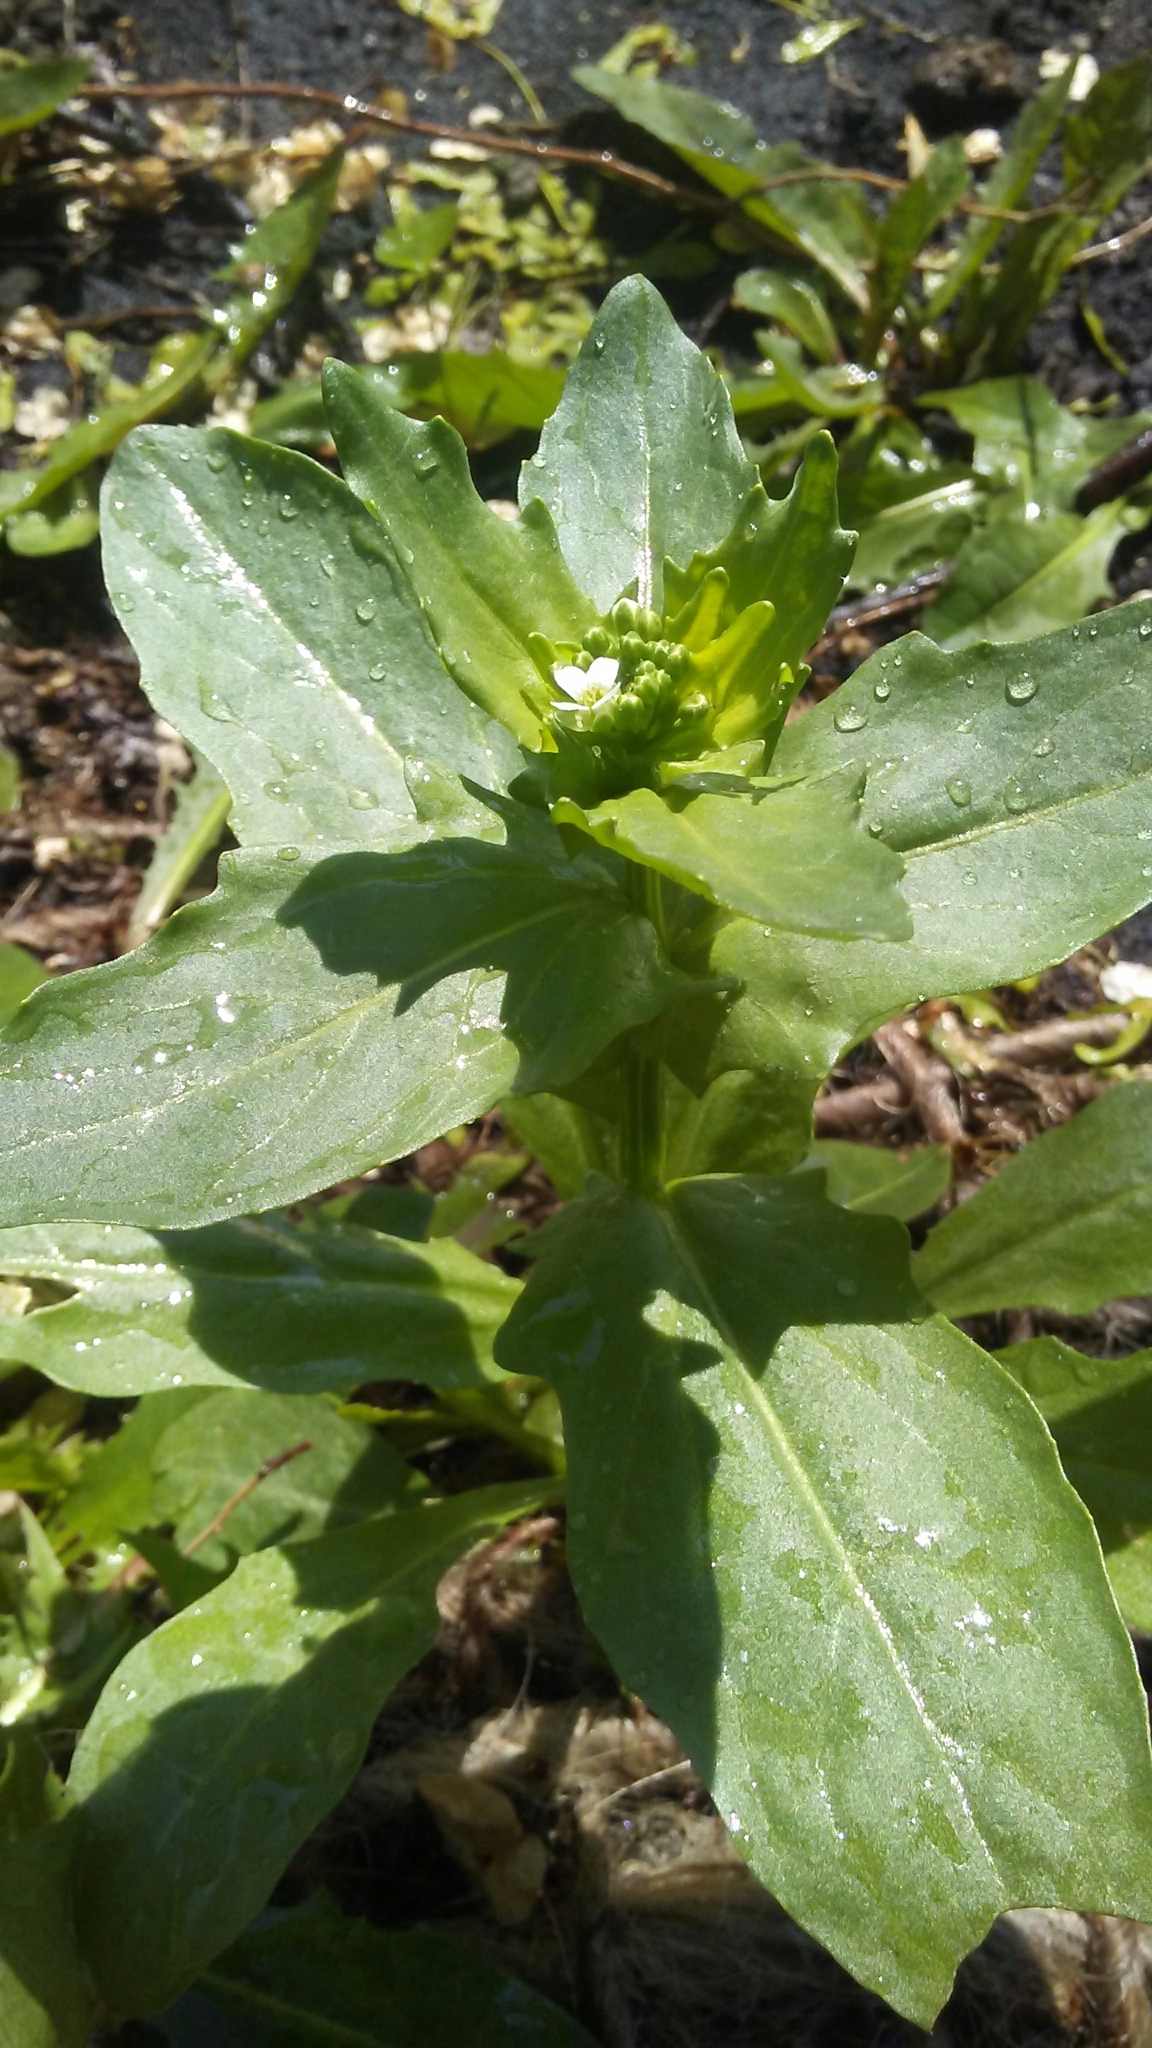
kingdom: Plantae
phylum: Tracheophyta
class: Magnoliopsida
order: Brassicales
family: Brassicaceae
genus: Thlaspi
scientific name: Thlaspi arvense
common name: Field pennycress
